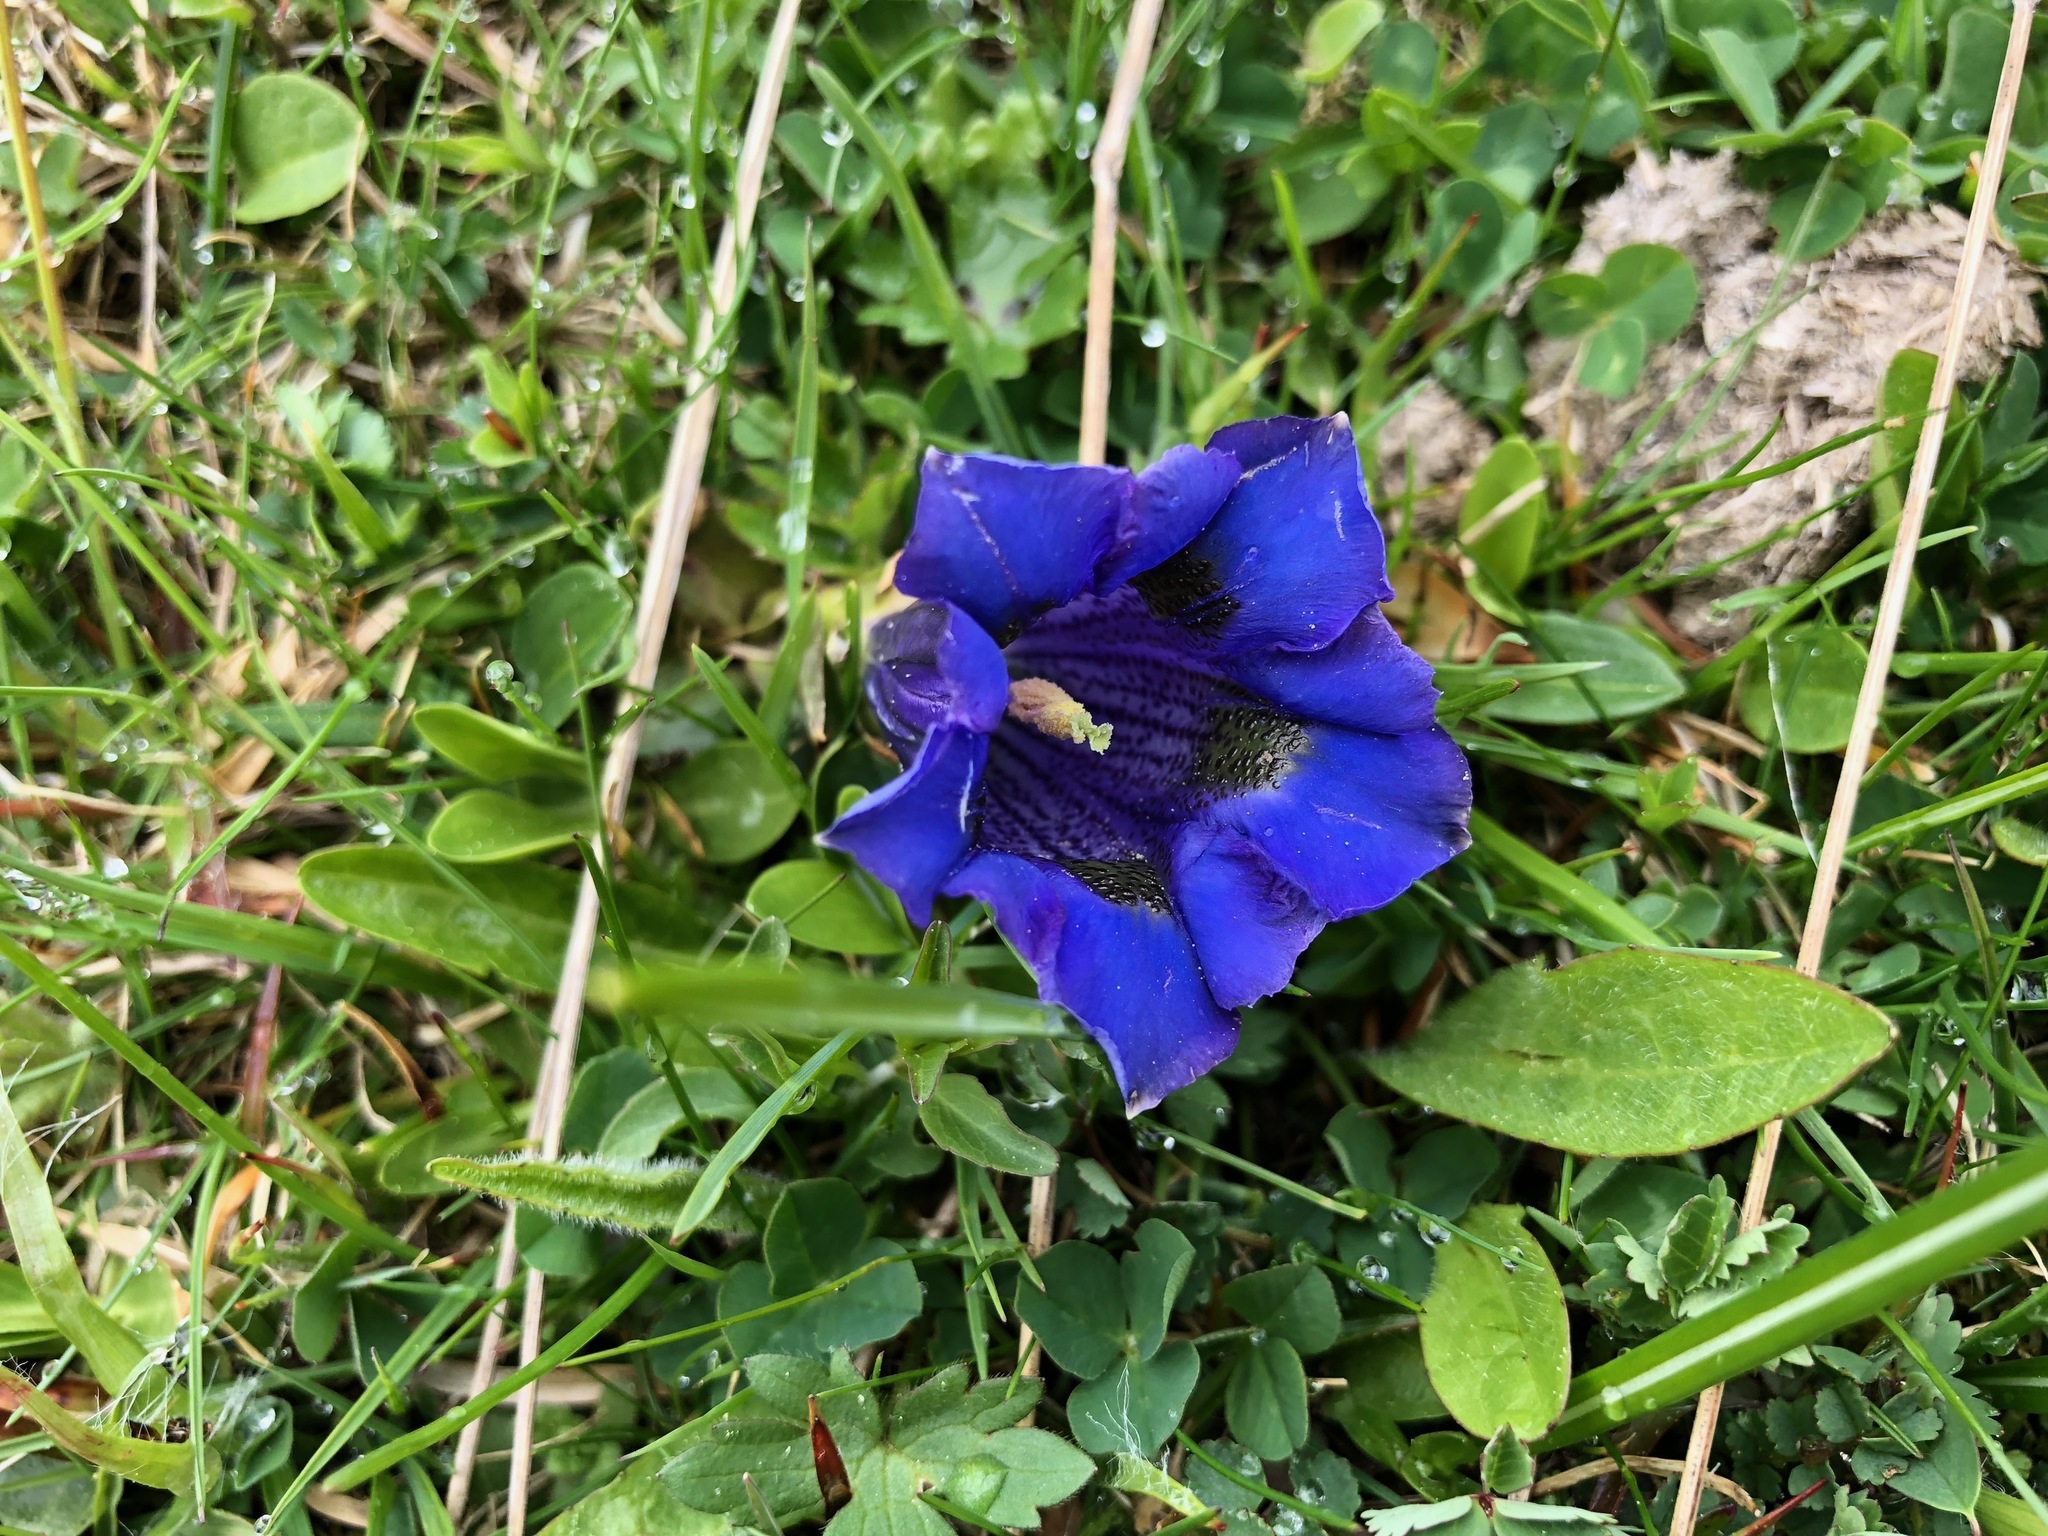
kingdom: Plantae
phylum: Tracheophyta
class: Magnoliopsida
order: Gentianales
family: Gentianaceae
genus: Gentiana
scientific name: Gentiana acaulis
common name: Trumpet gentian
